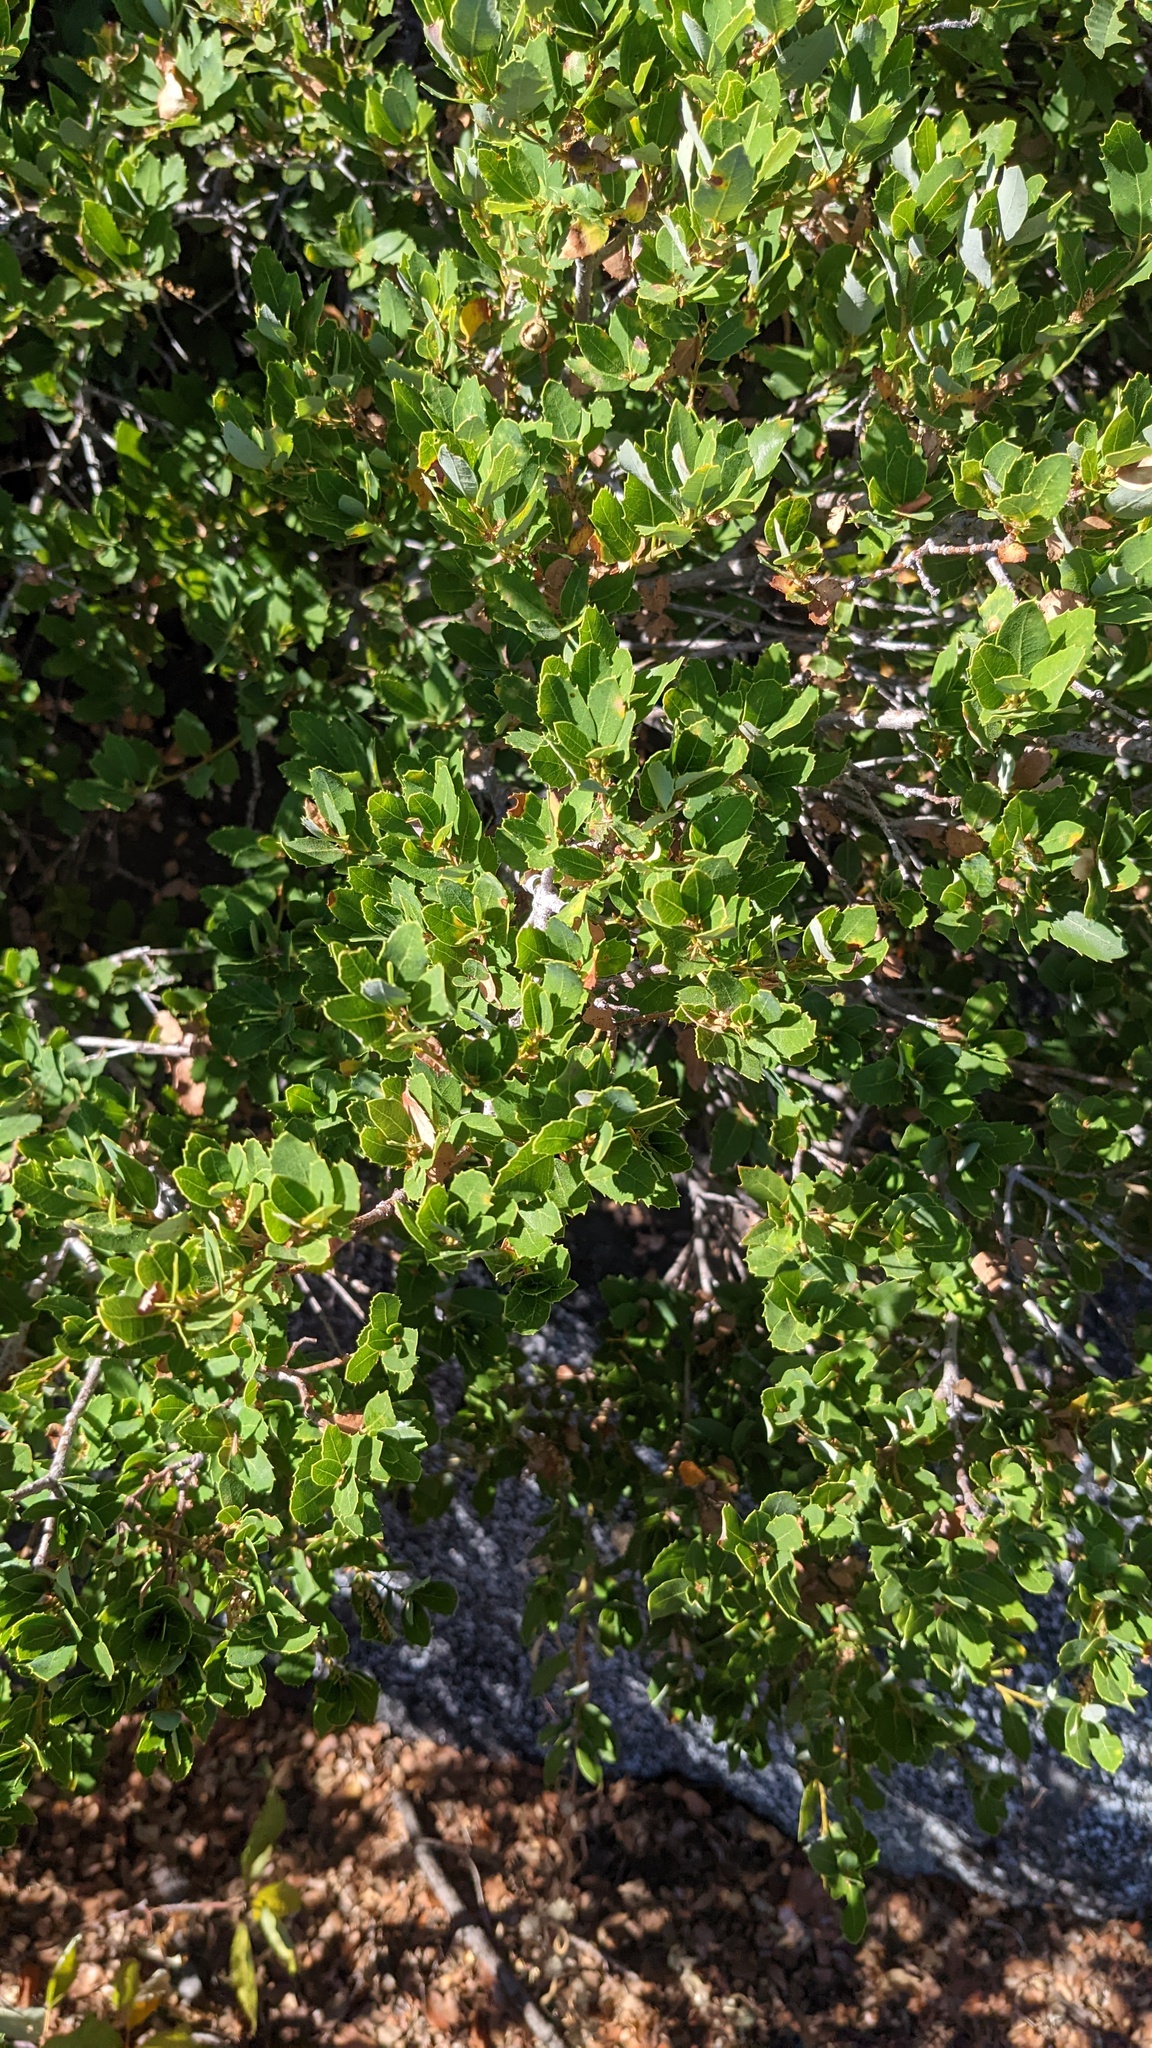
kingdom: Animalia
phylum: Arthropoda
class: Insecta
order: Hymenoptera
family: Cynipidae
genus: Heteroecus
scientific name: Heteroecus pacificus
